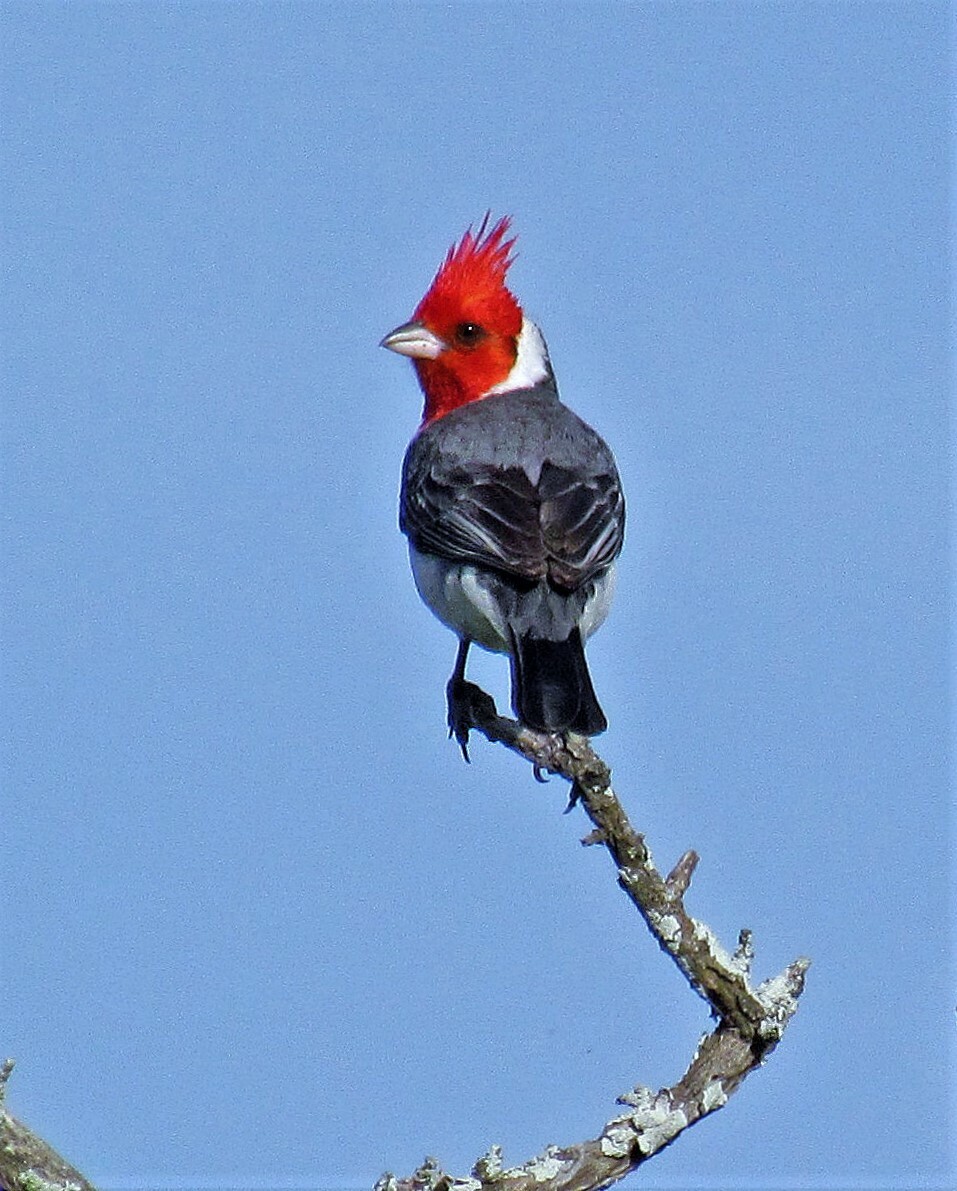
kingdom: Animalia
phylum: Chordata
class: Aves
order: Passeriformes
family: Thraupidae
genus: Paroaria
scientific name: Paroaria coronata
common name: Red-crested cardinal
